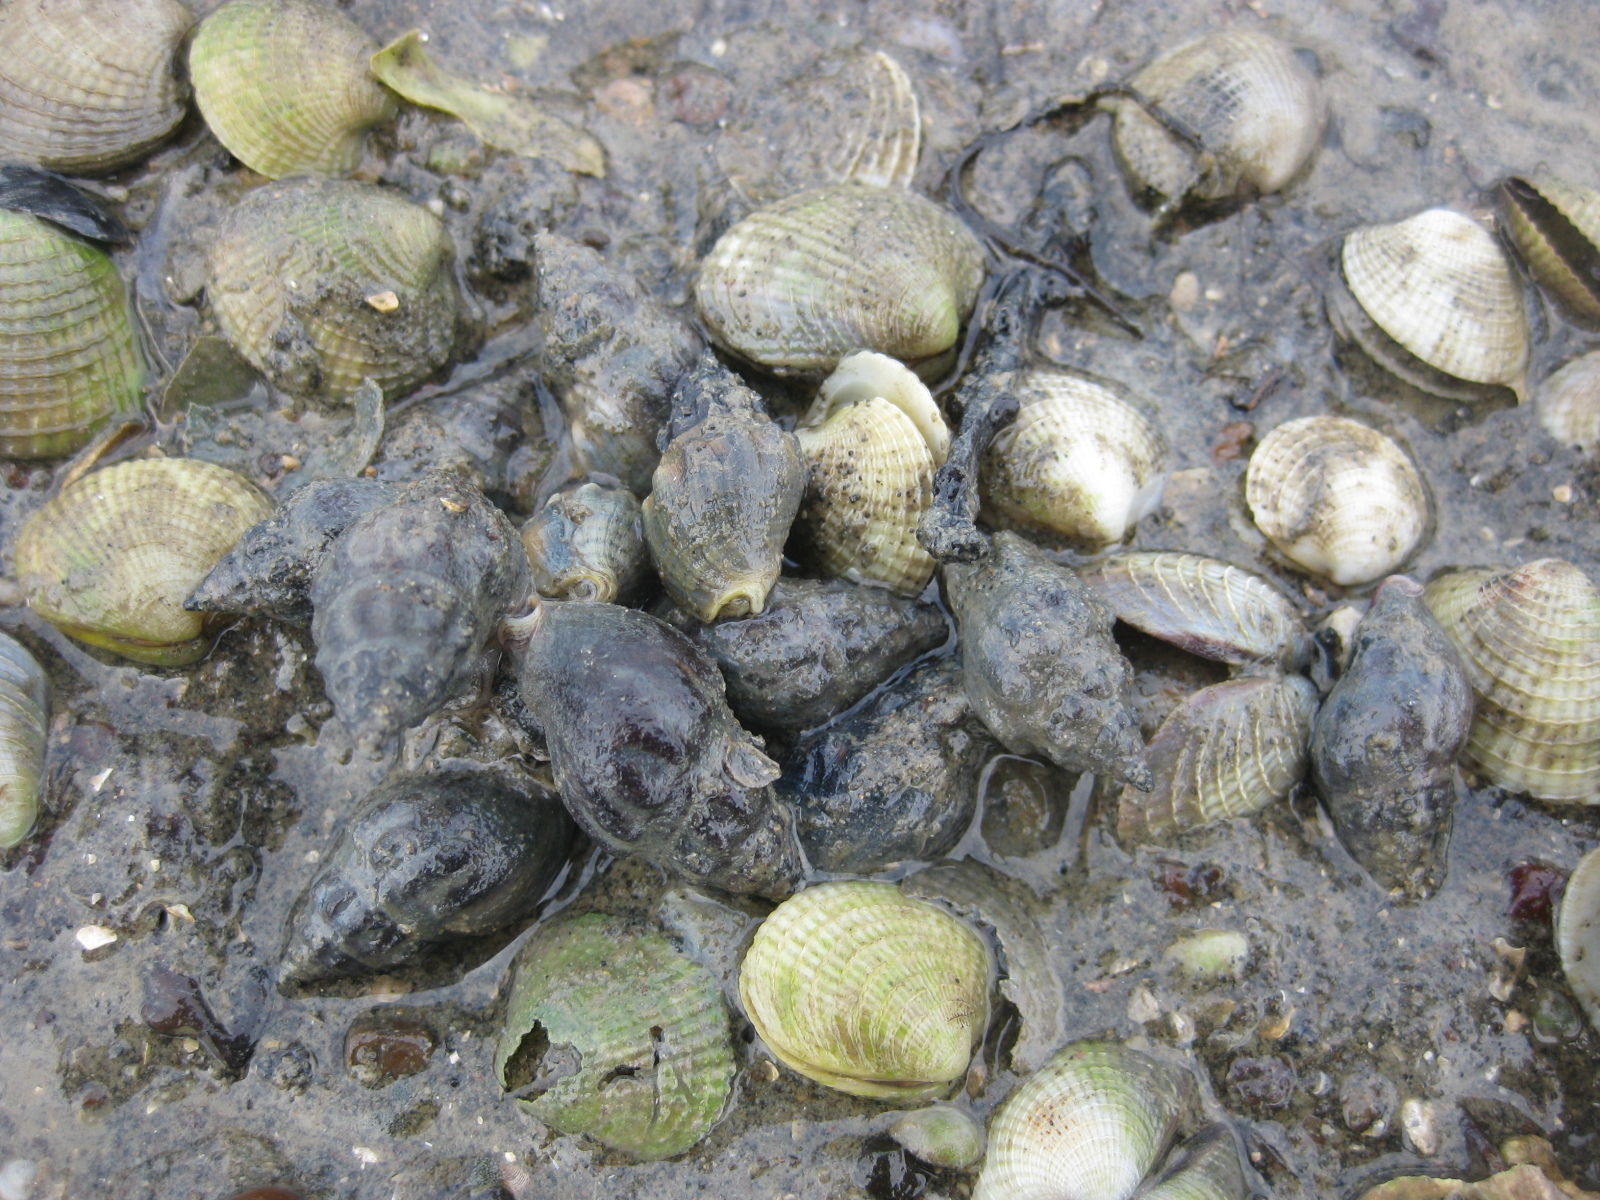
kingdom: Animalia
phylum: Mollusca
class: Gastropoda
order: Neogastropoda
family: Cominellidae
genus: Cominella
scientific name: Cominella glandiformis
